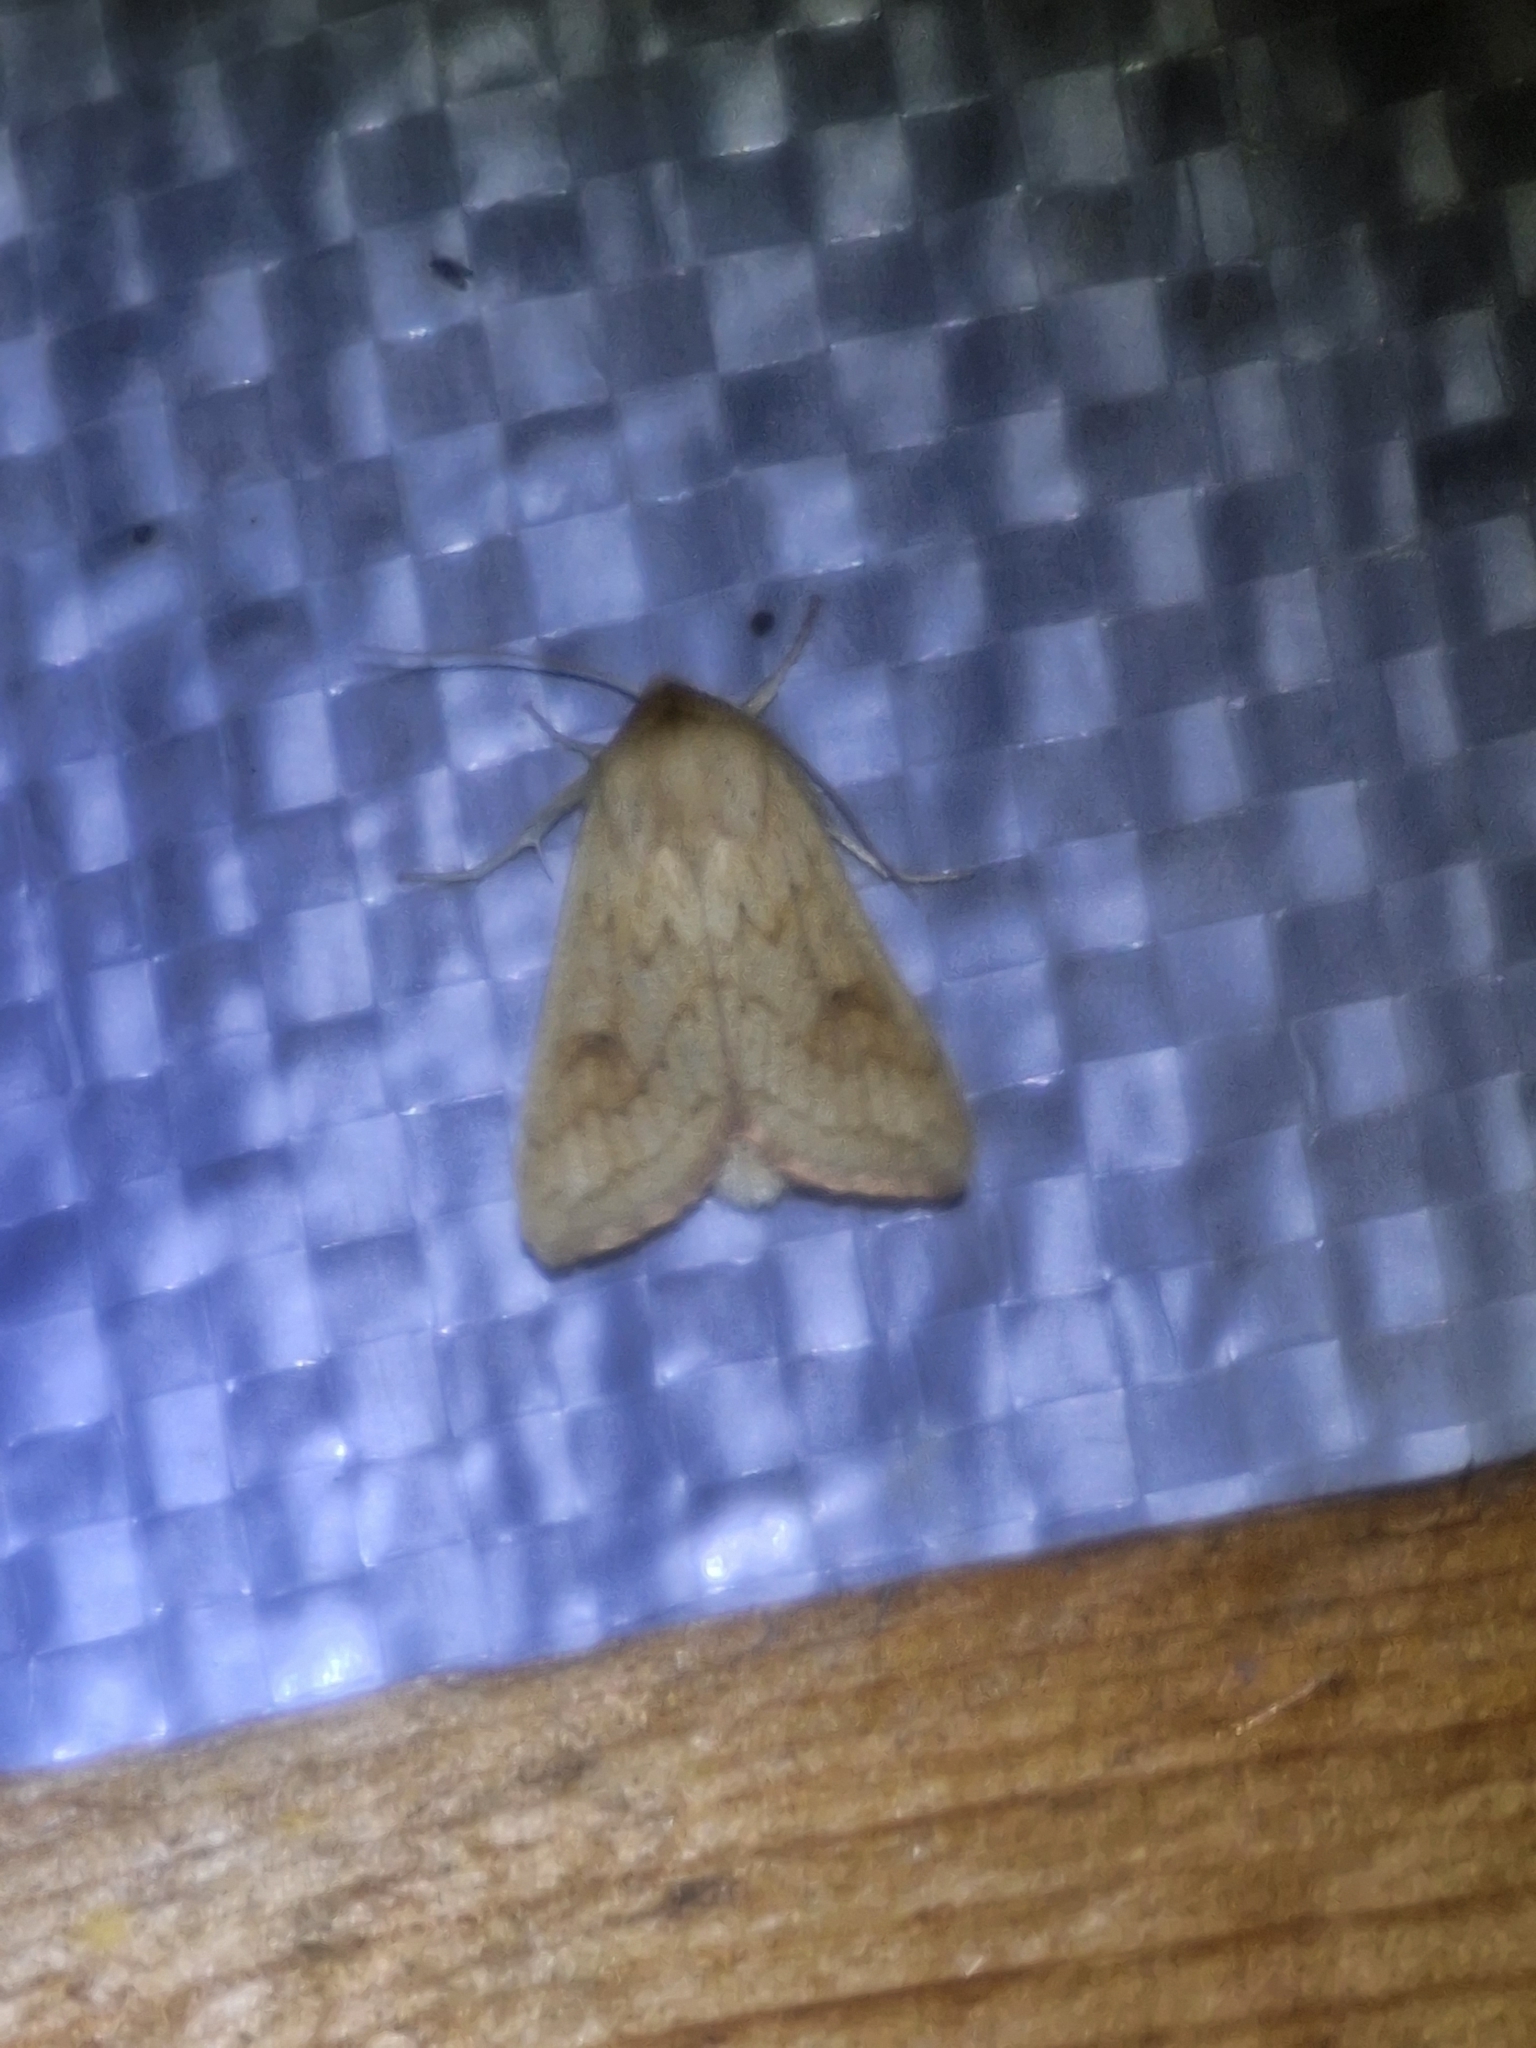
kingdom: Animalia
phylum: Arthropoda
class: Insecta
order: Lepidoptera
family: Noctuidae
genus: Mythimna
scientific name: Mythimna vitellina
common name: Delicate
